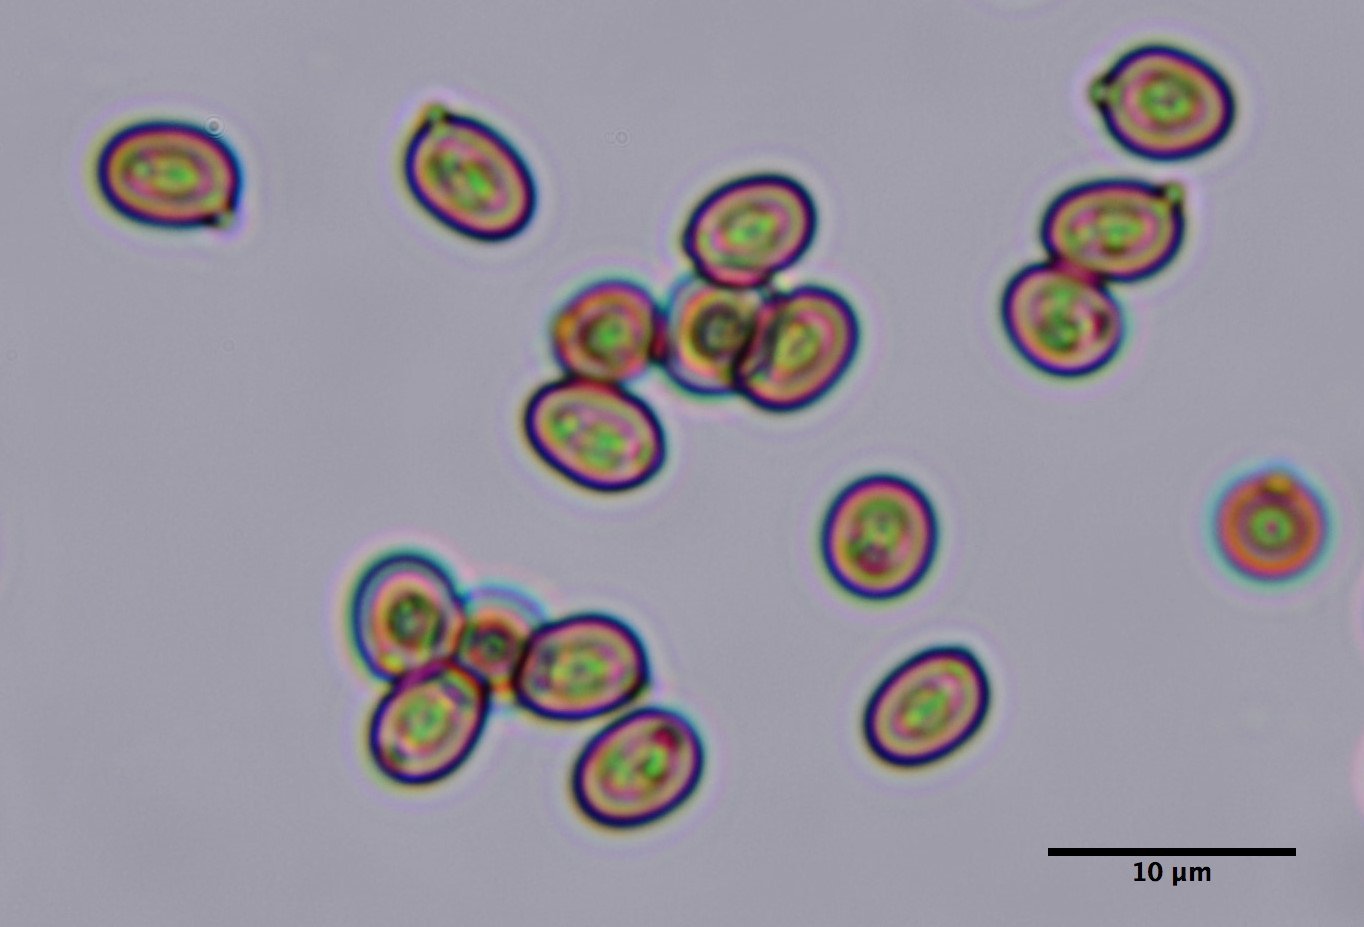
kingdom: Fungi
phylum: Basidiomycota
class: Agaricomycetes
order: Agaricales
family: Agaricaceae
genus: Agaricus
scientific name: Agaricus californicus
